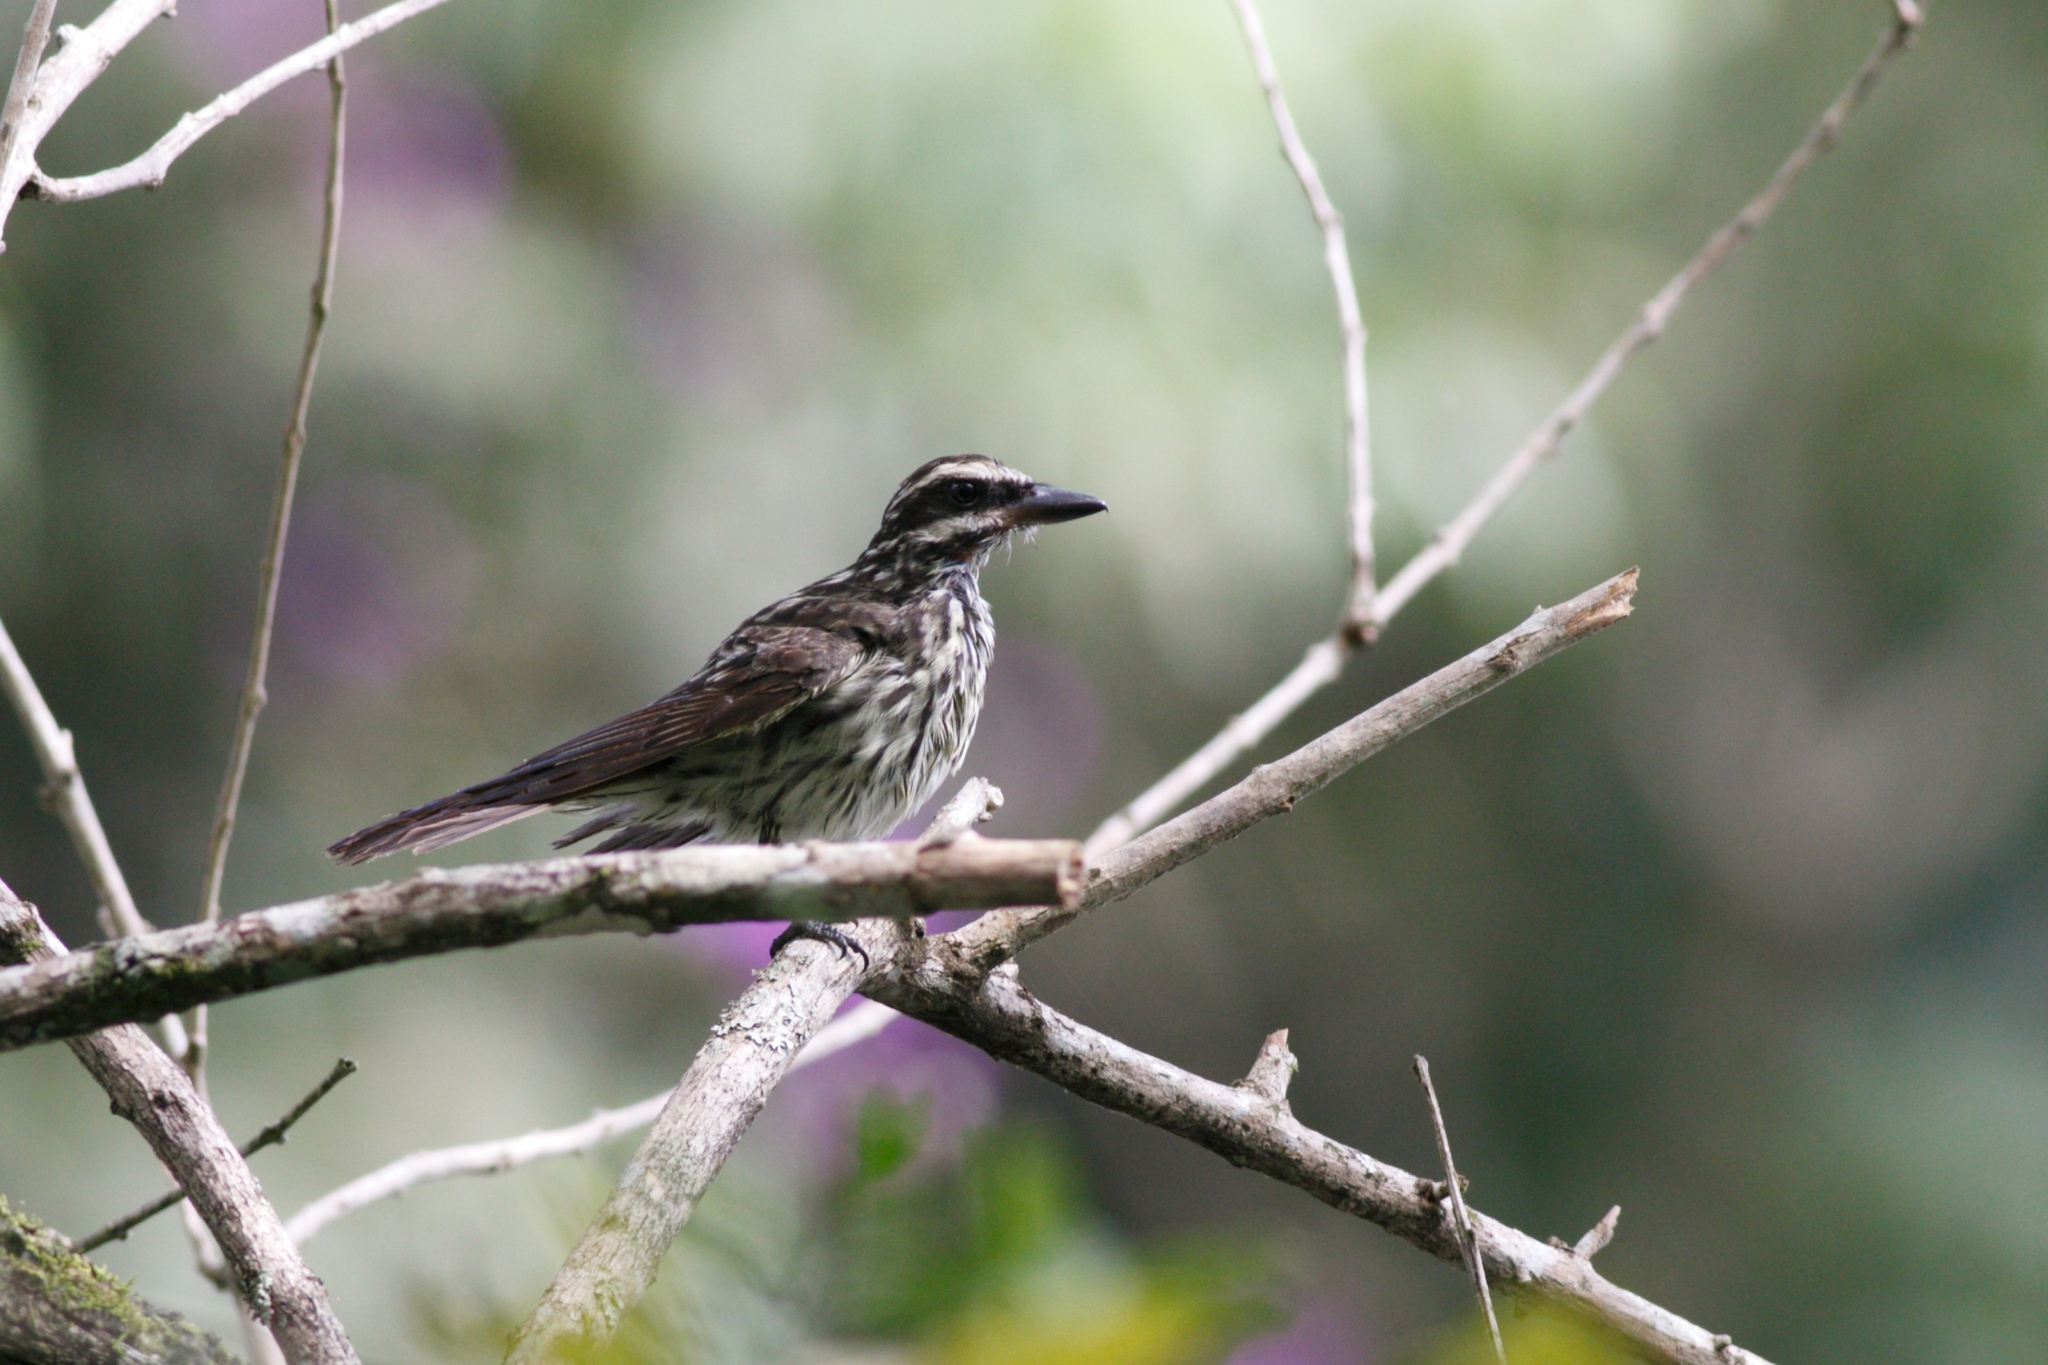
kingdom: Animalia
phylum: Chordata
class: Aves
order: Passeriformes
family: Tyrannidae
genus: Myiodynastes
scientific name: Myiodynastes maculatus
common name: Streaked flycatcher
